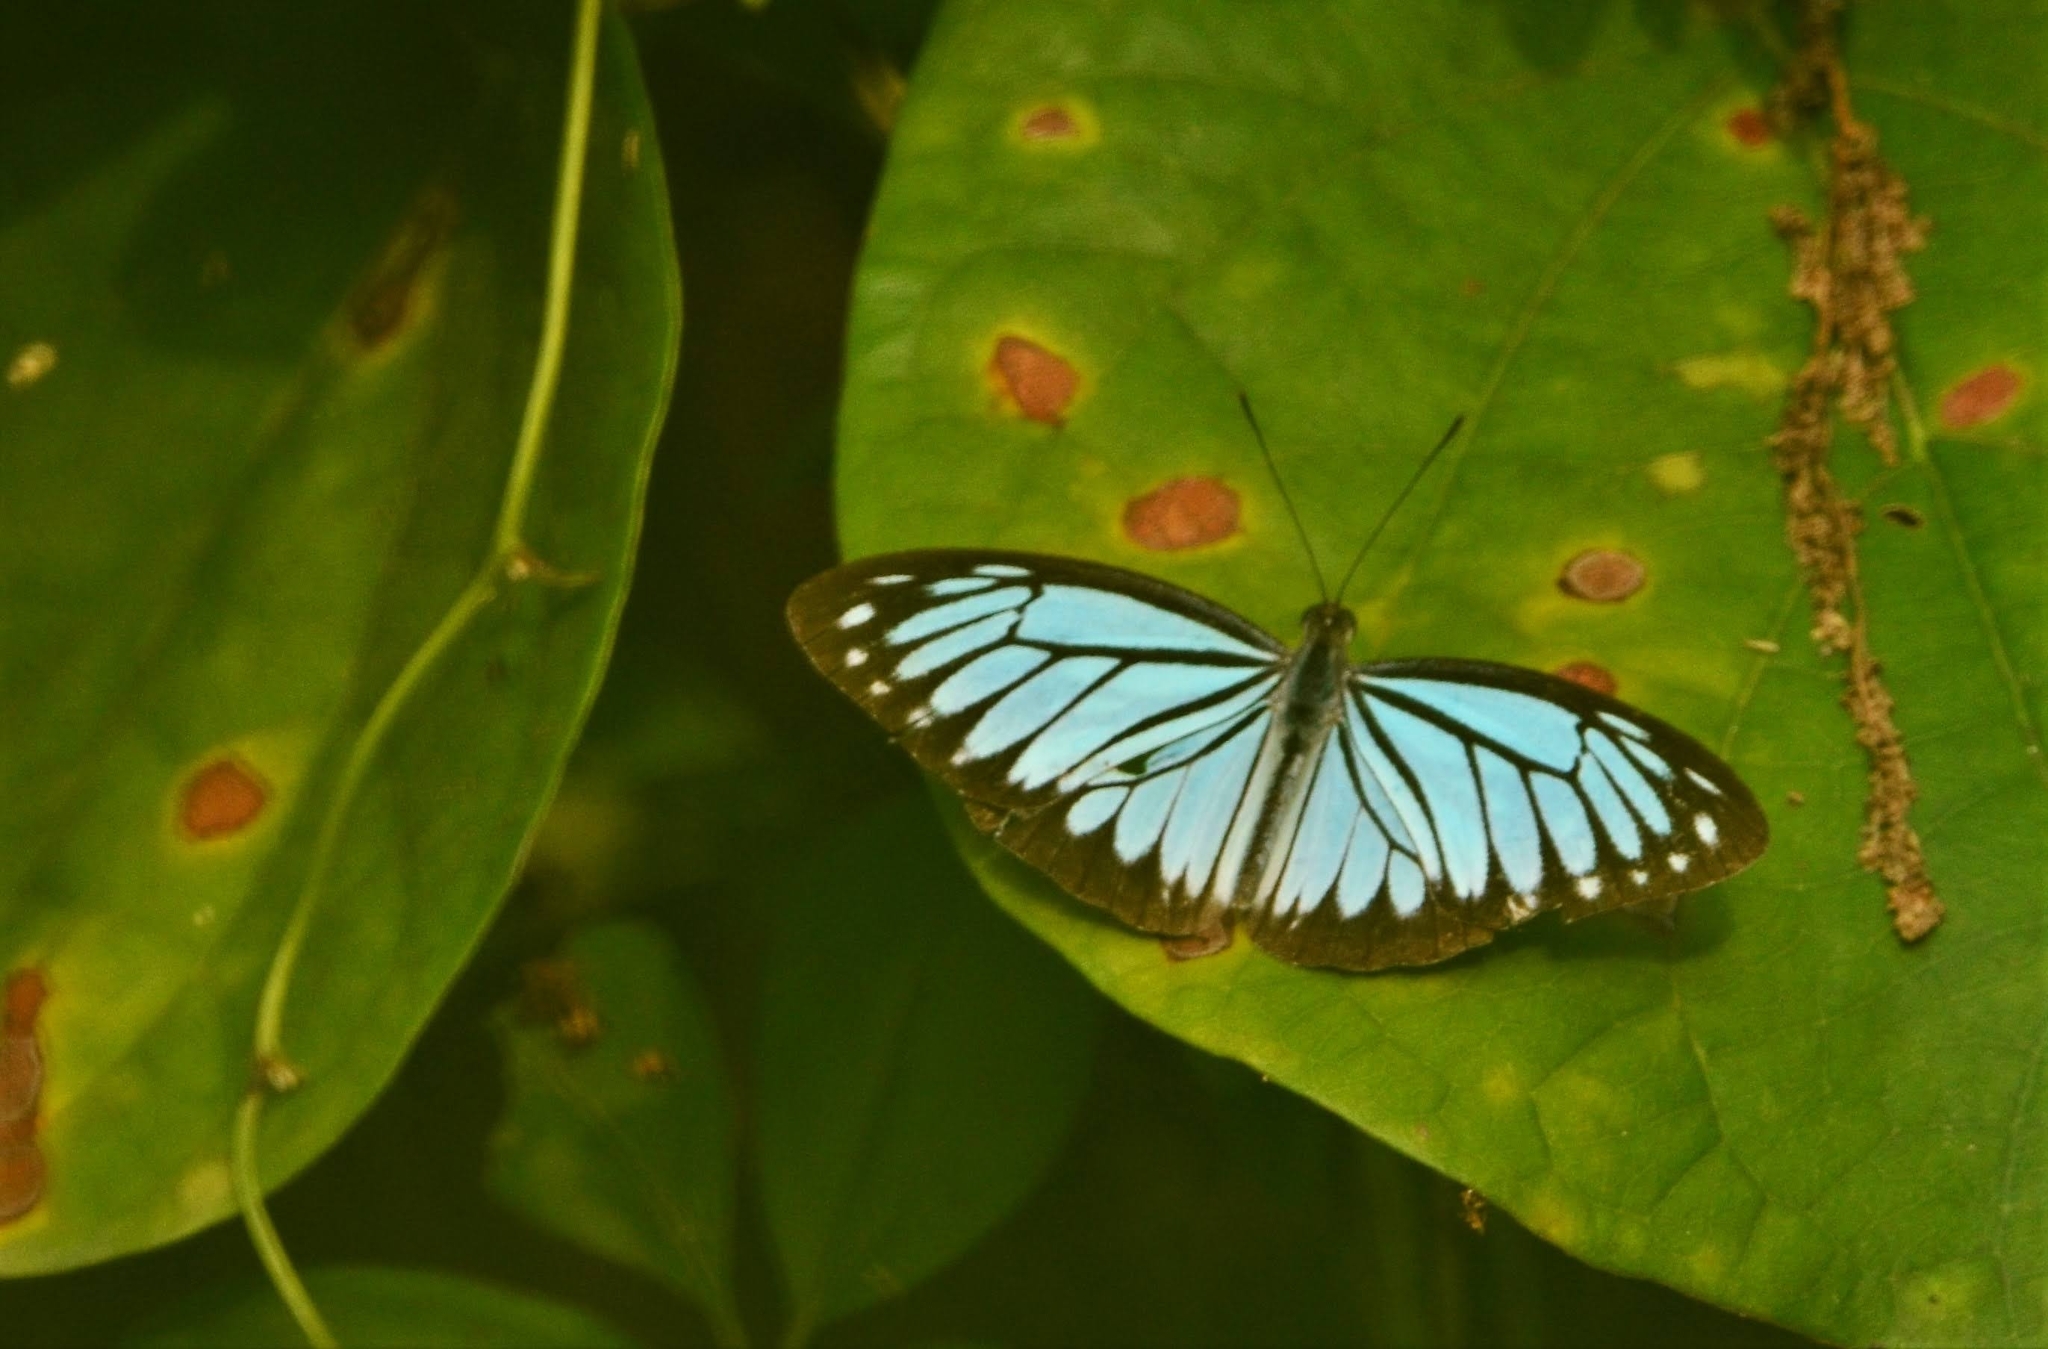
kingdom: Animalia
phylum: Arthropoda
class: Insecta
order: Lepidoptera
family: Pieridae
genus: Pareronia
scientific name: Pareronia hippia
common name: Indian wanderer
